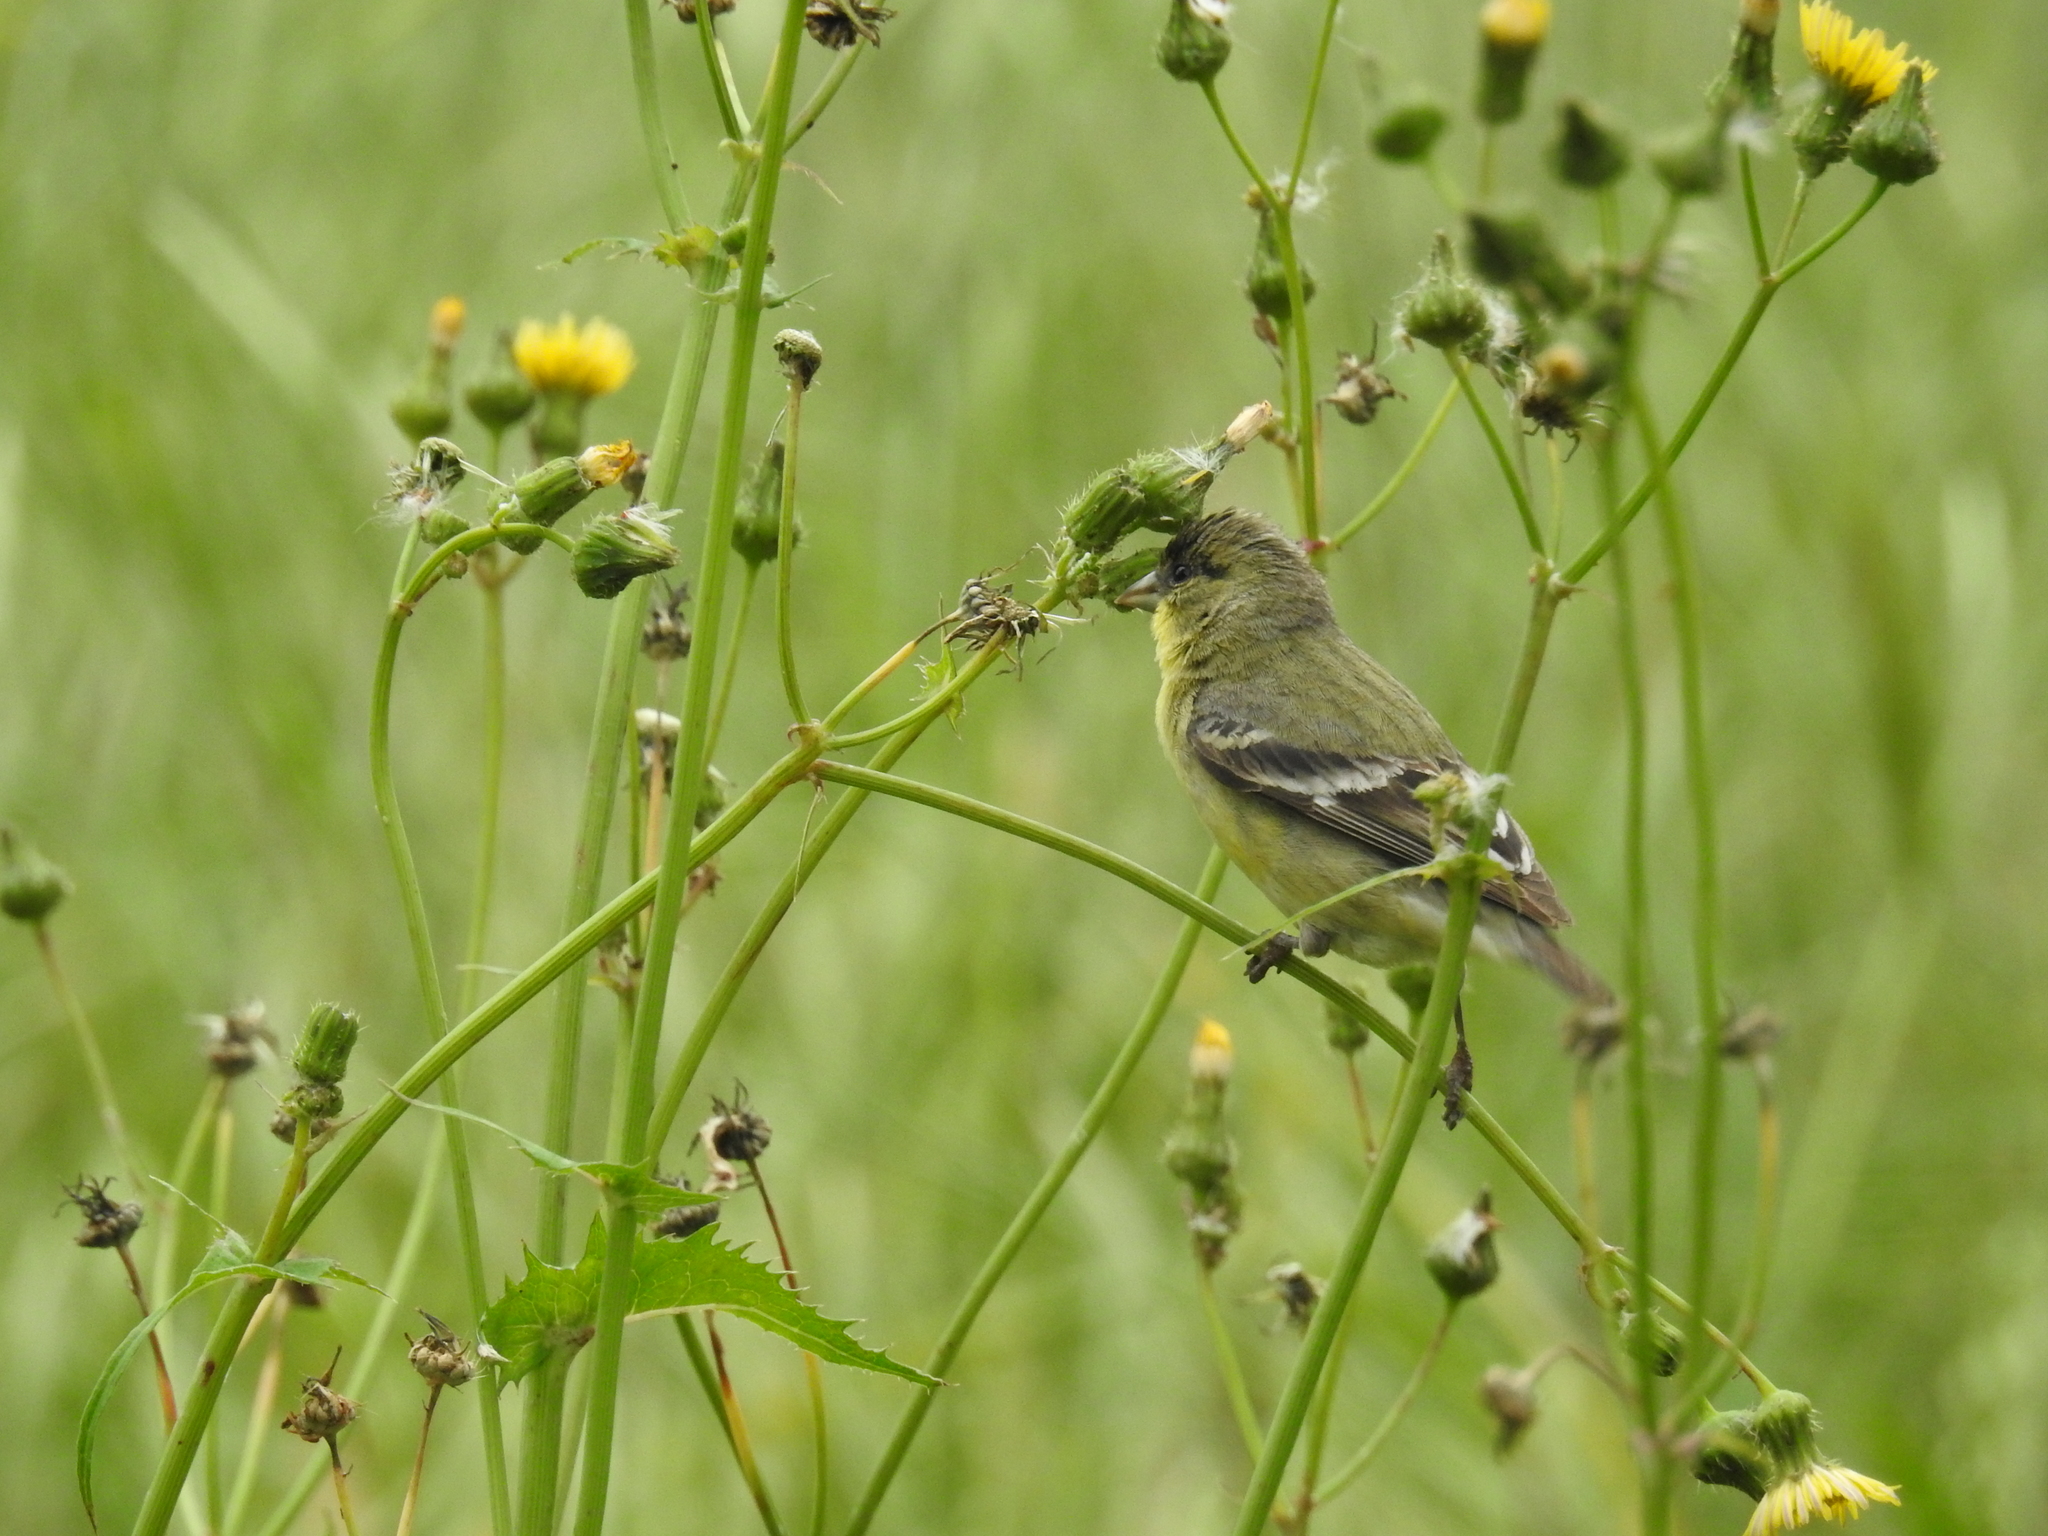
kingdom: Animalia
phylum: Chordata
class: Aves
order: Passeriformes
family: Fringillidae
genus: Spinus
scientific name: Spinus psaltria
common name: Lesser goldfinch
